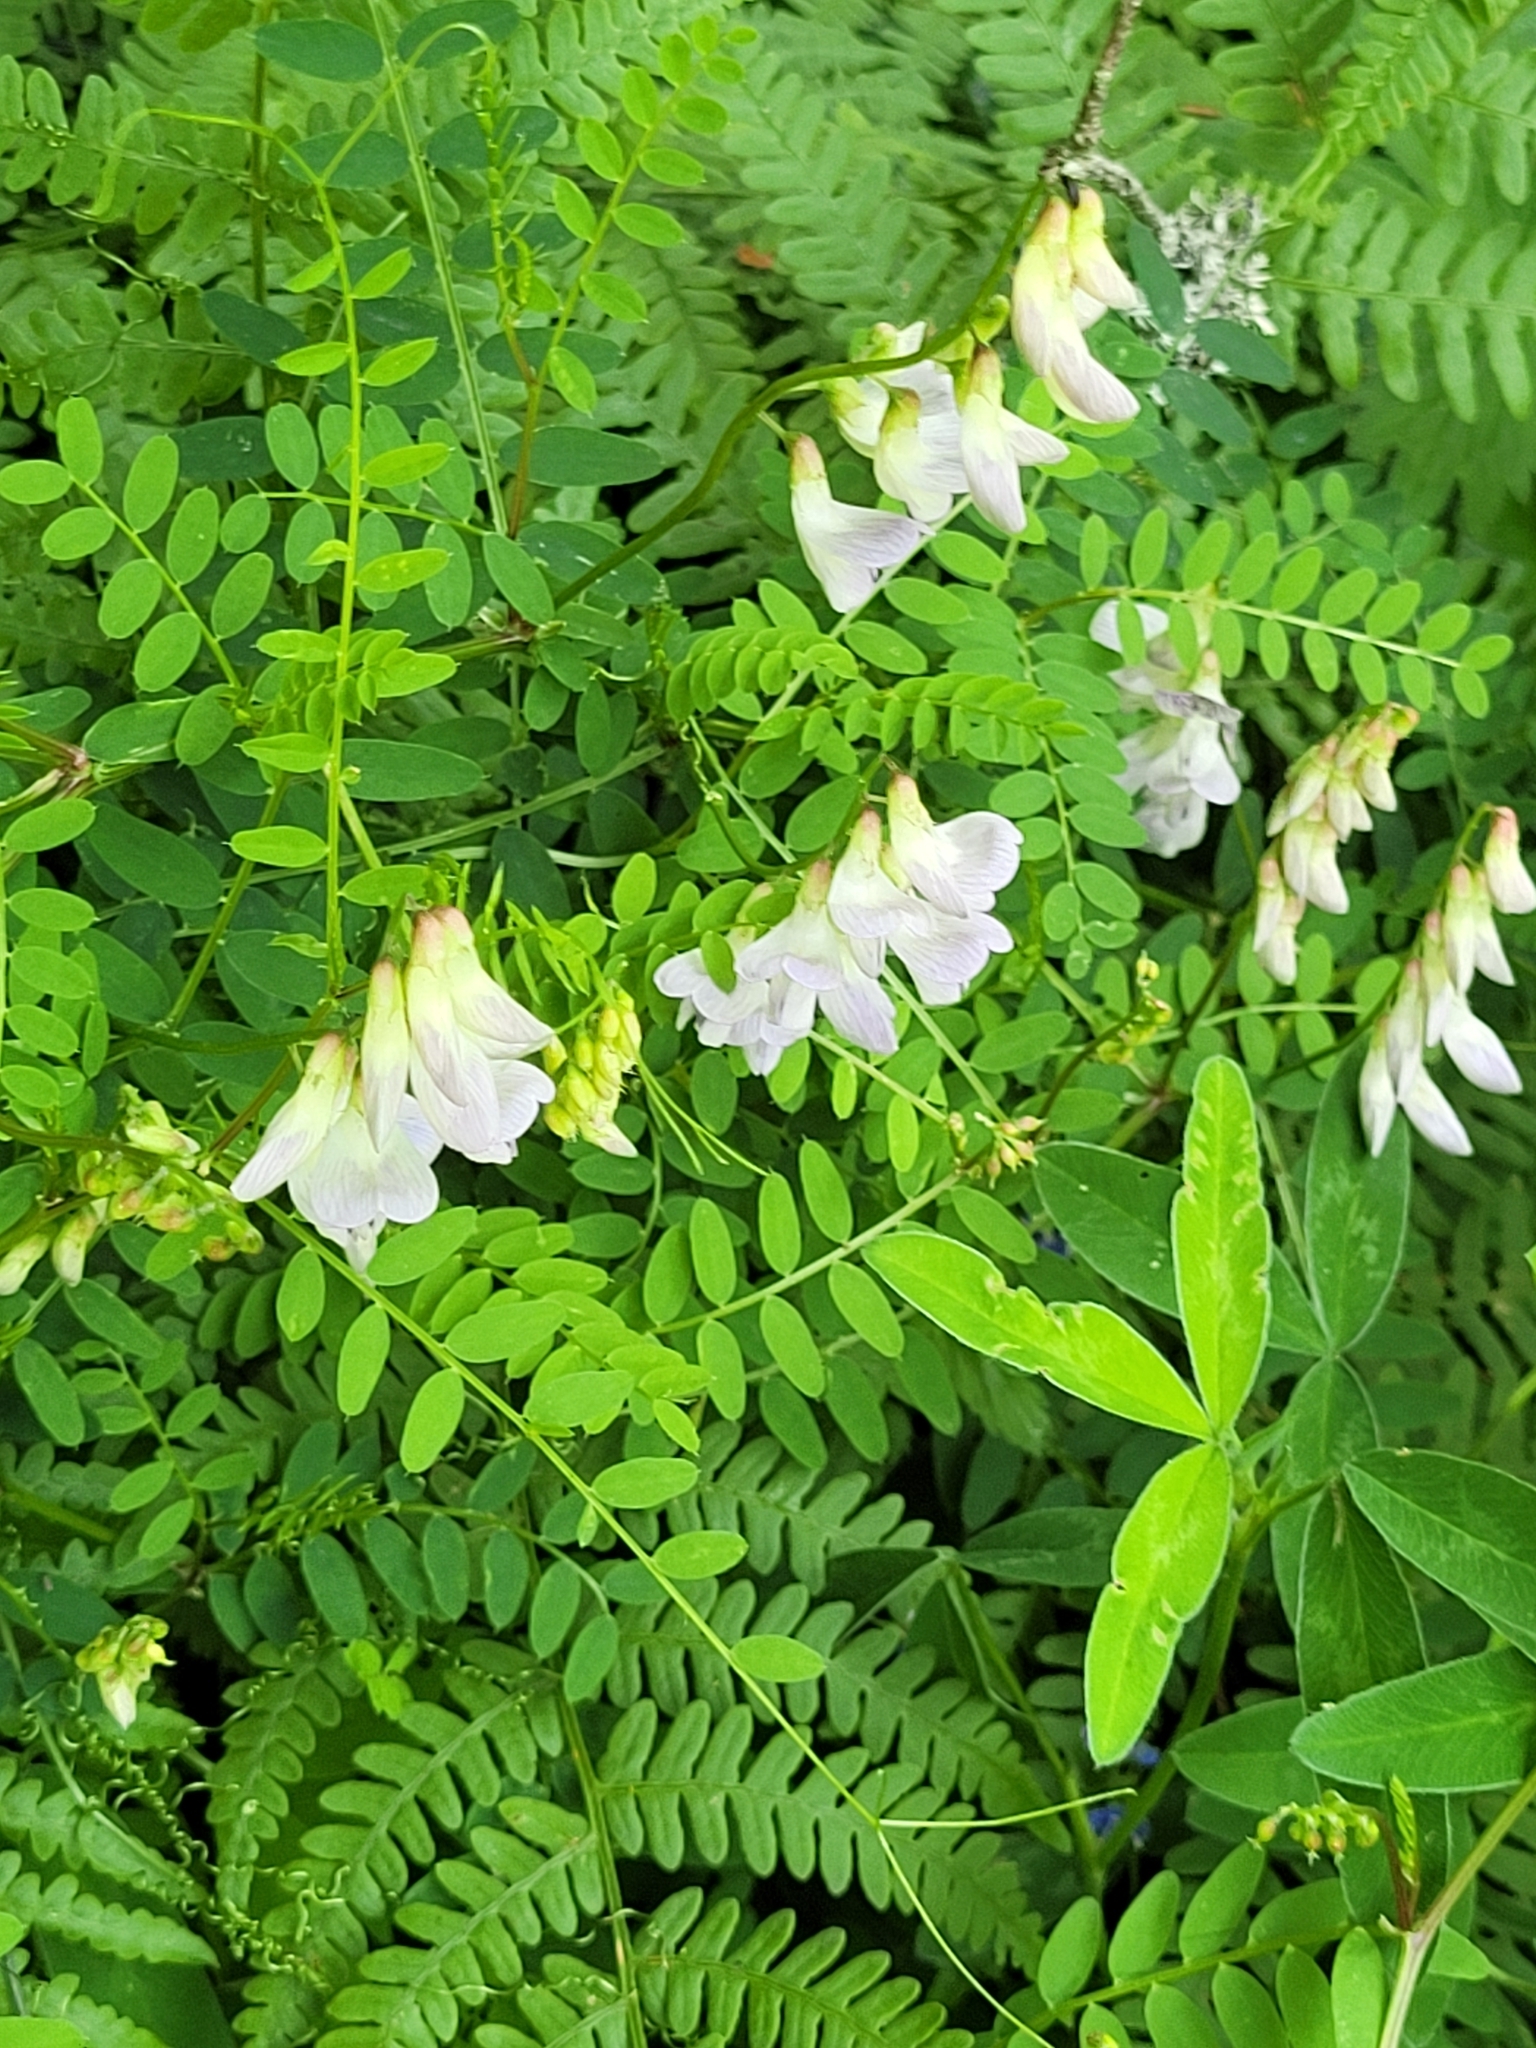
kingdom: Plantae
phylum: Tracheophyta
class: Magnoliopsida
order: Fabales
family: Fabaceae
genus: Vicia
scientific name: Vicia sylvatica
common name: Wood vetch
